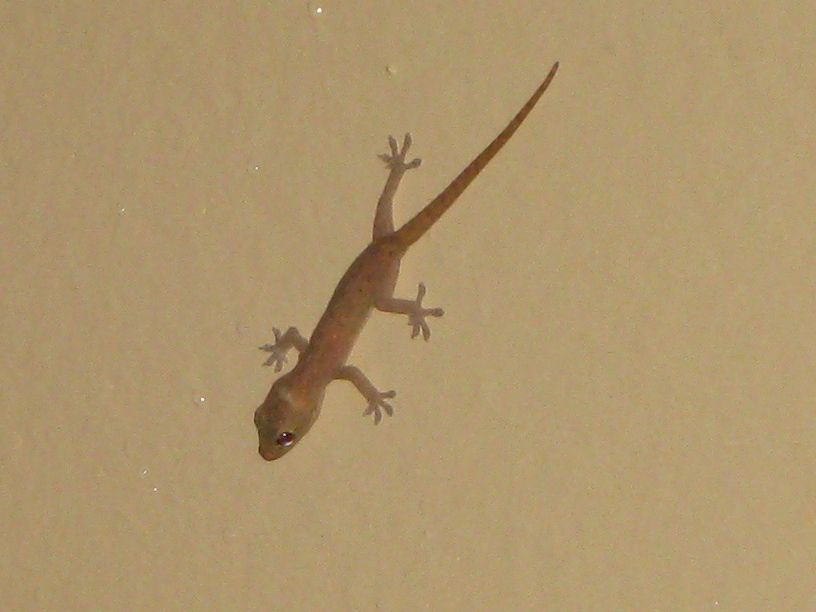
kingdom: Animalia
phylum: Chordata
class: Squamata
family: Gekkonidae
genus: Hemidactylus
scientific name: Hemidactylus frenatus
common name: Common house gecko
